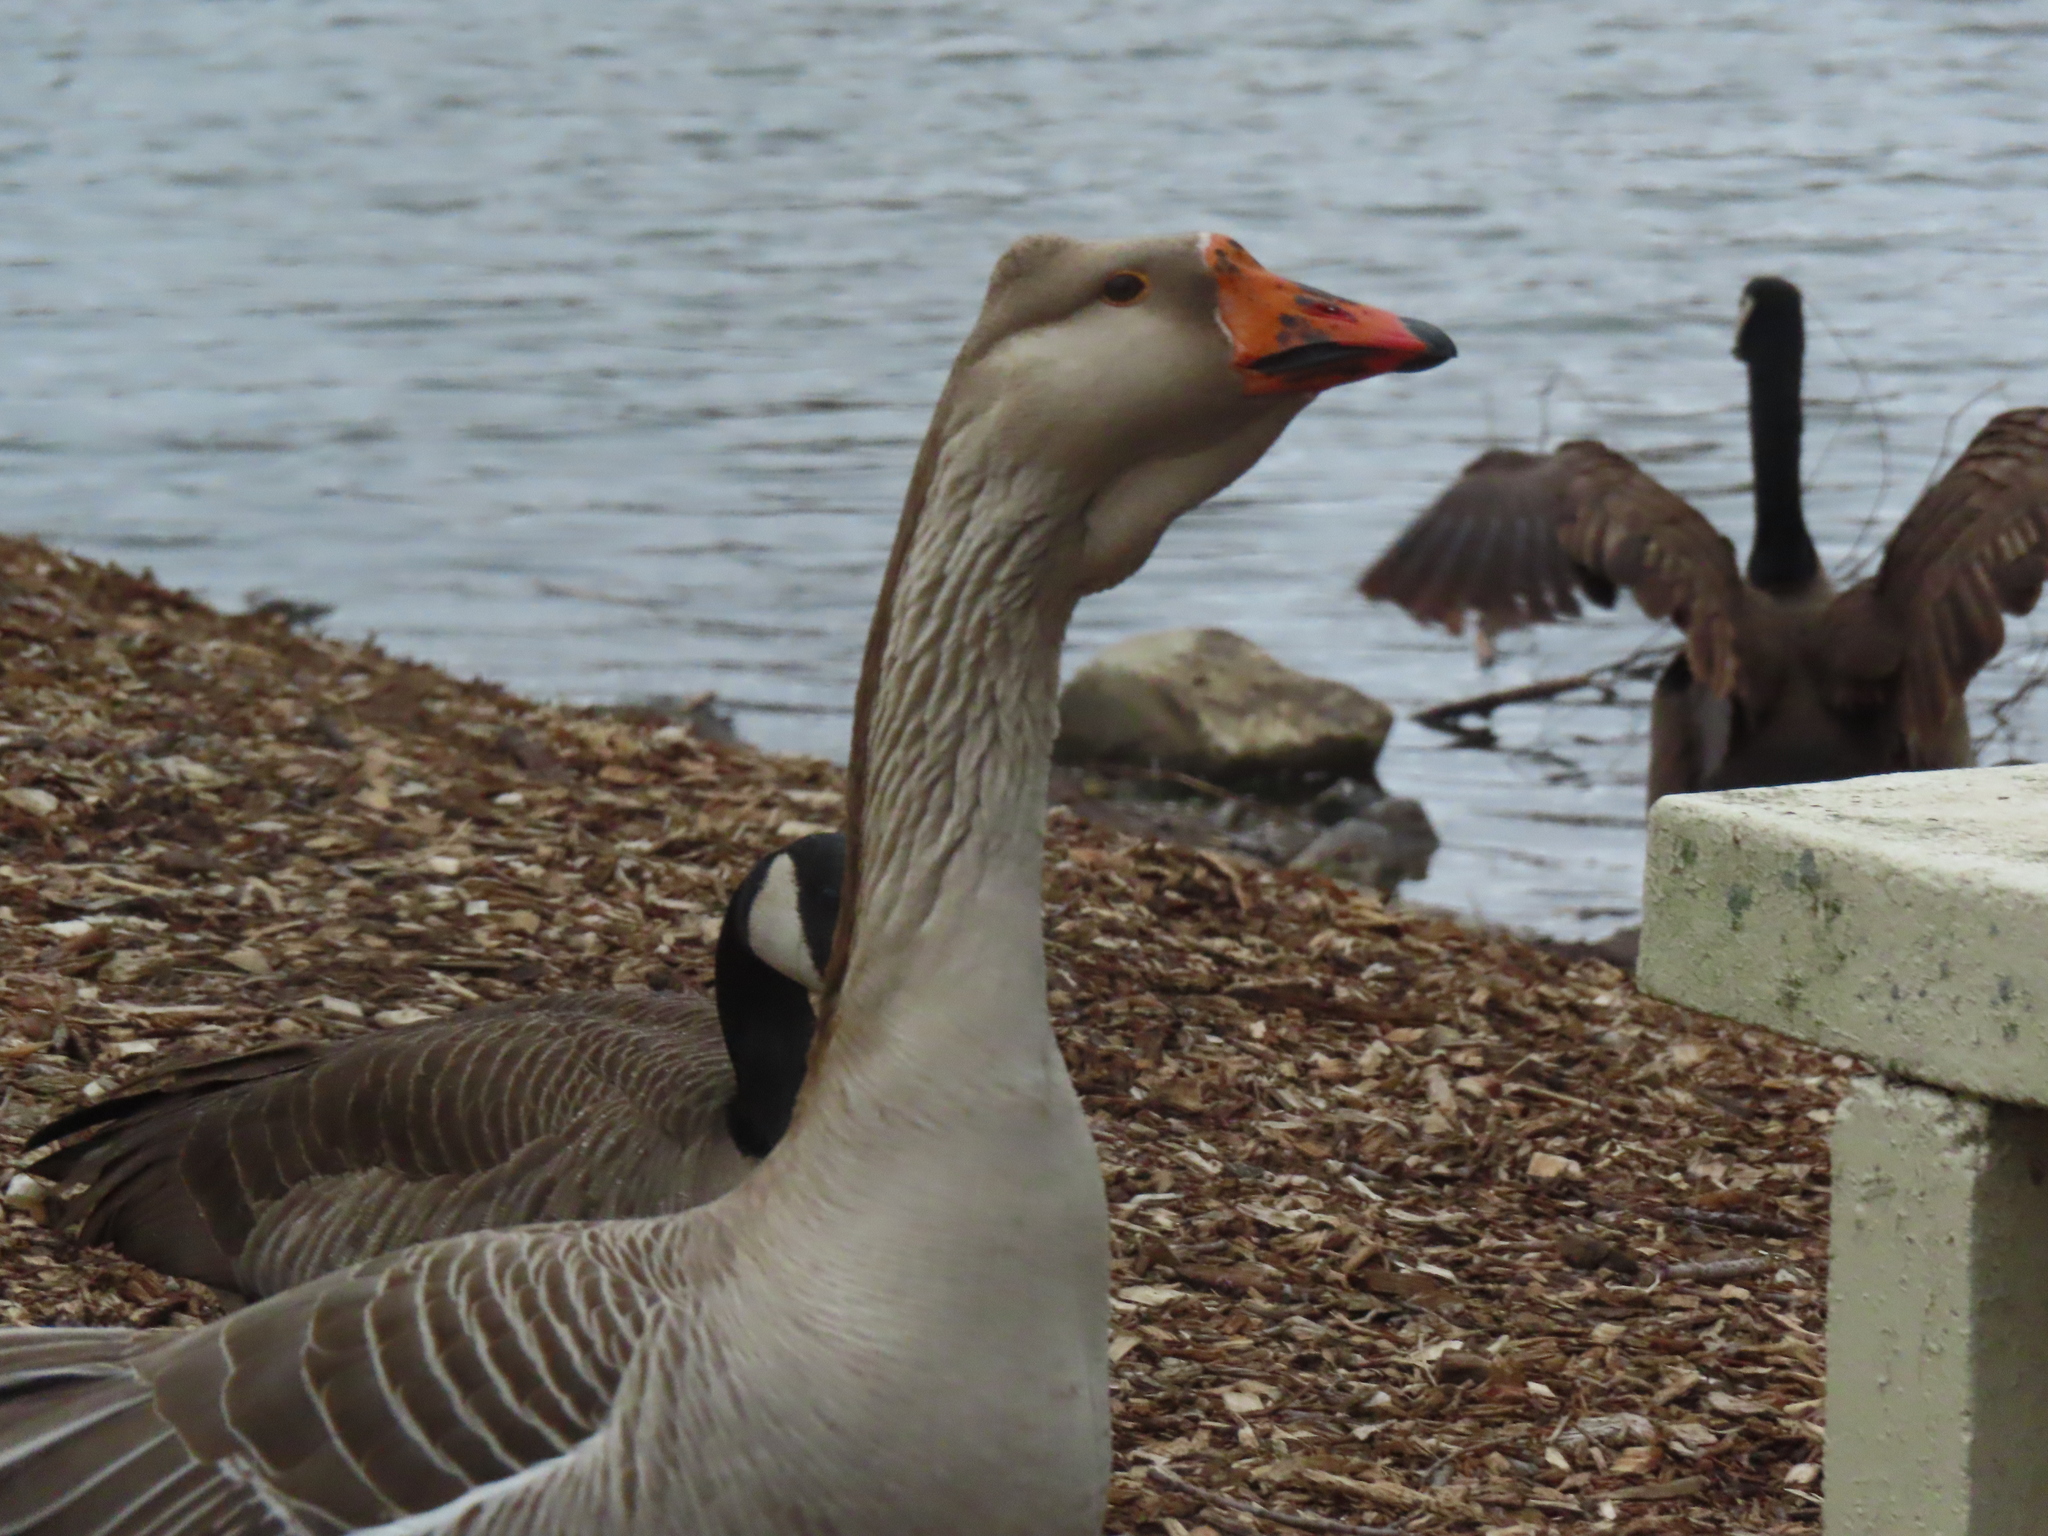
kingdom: Animalia
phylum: Chordata
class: Aves
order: Anseriformes
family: Anatidae
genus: Anser
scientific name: Anser
